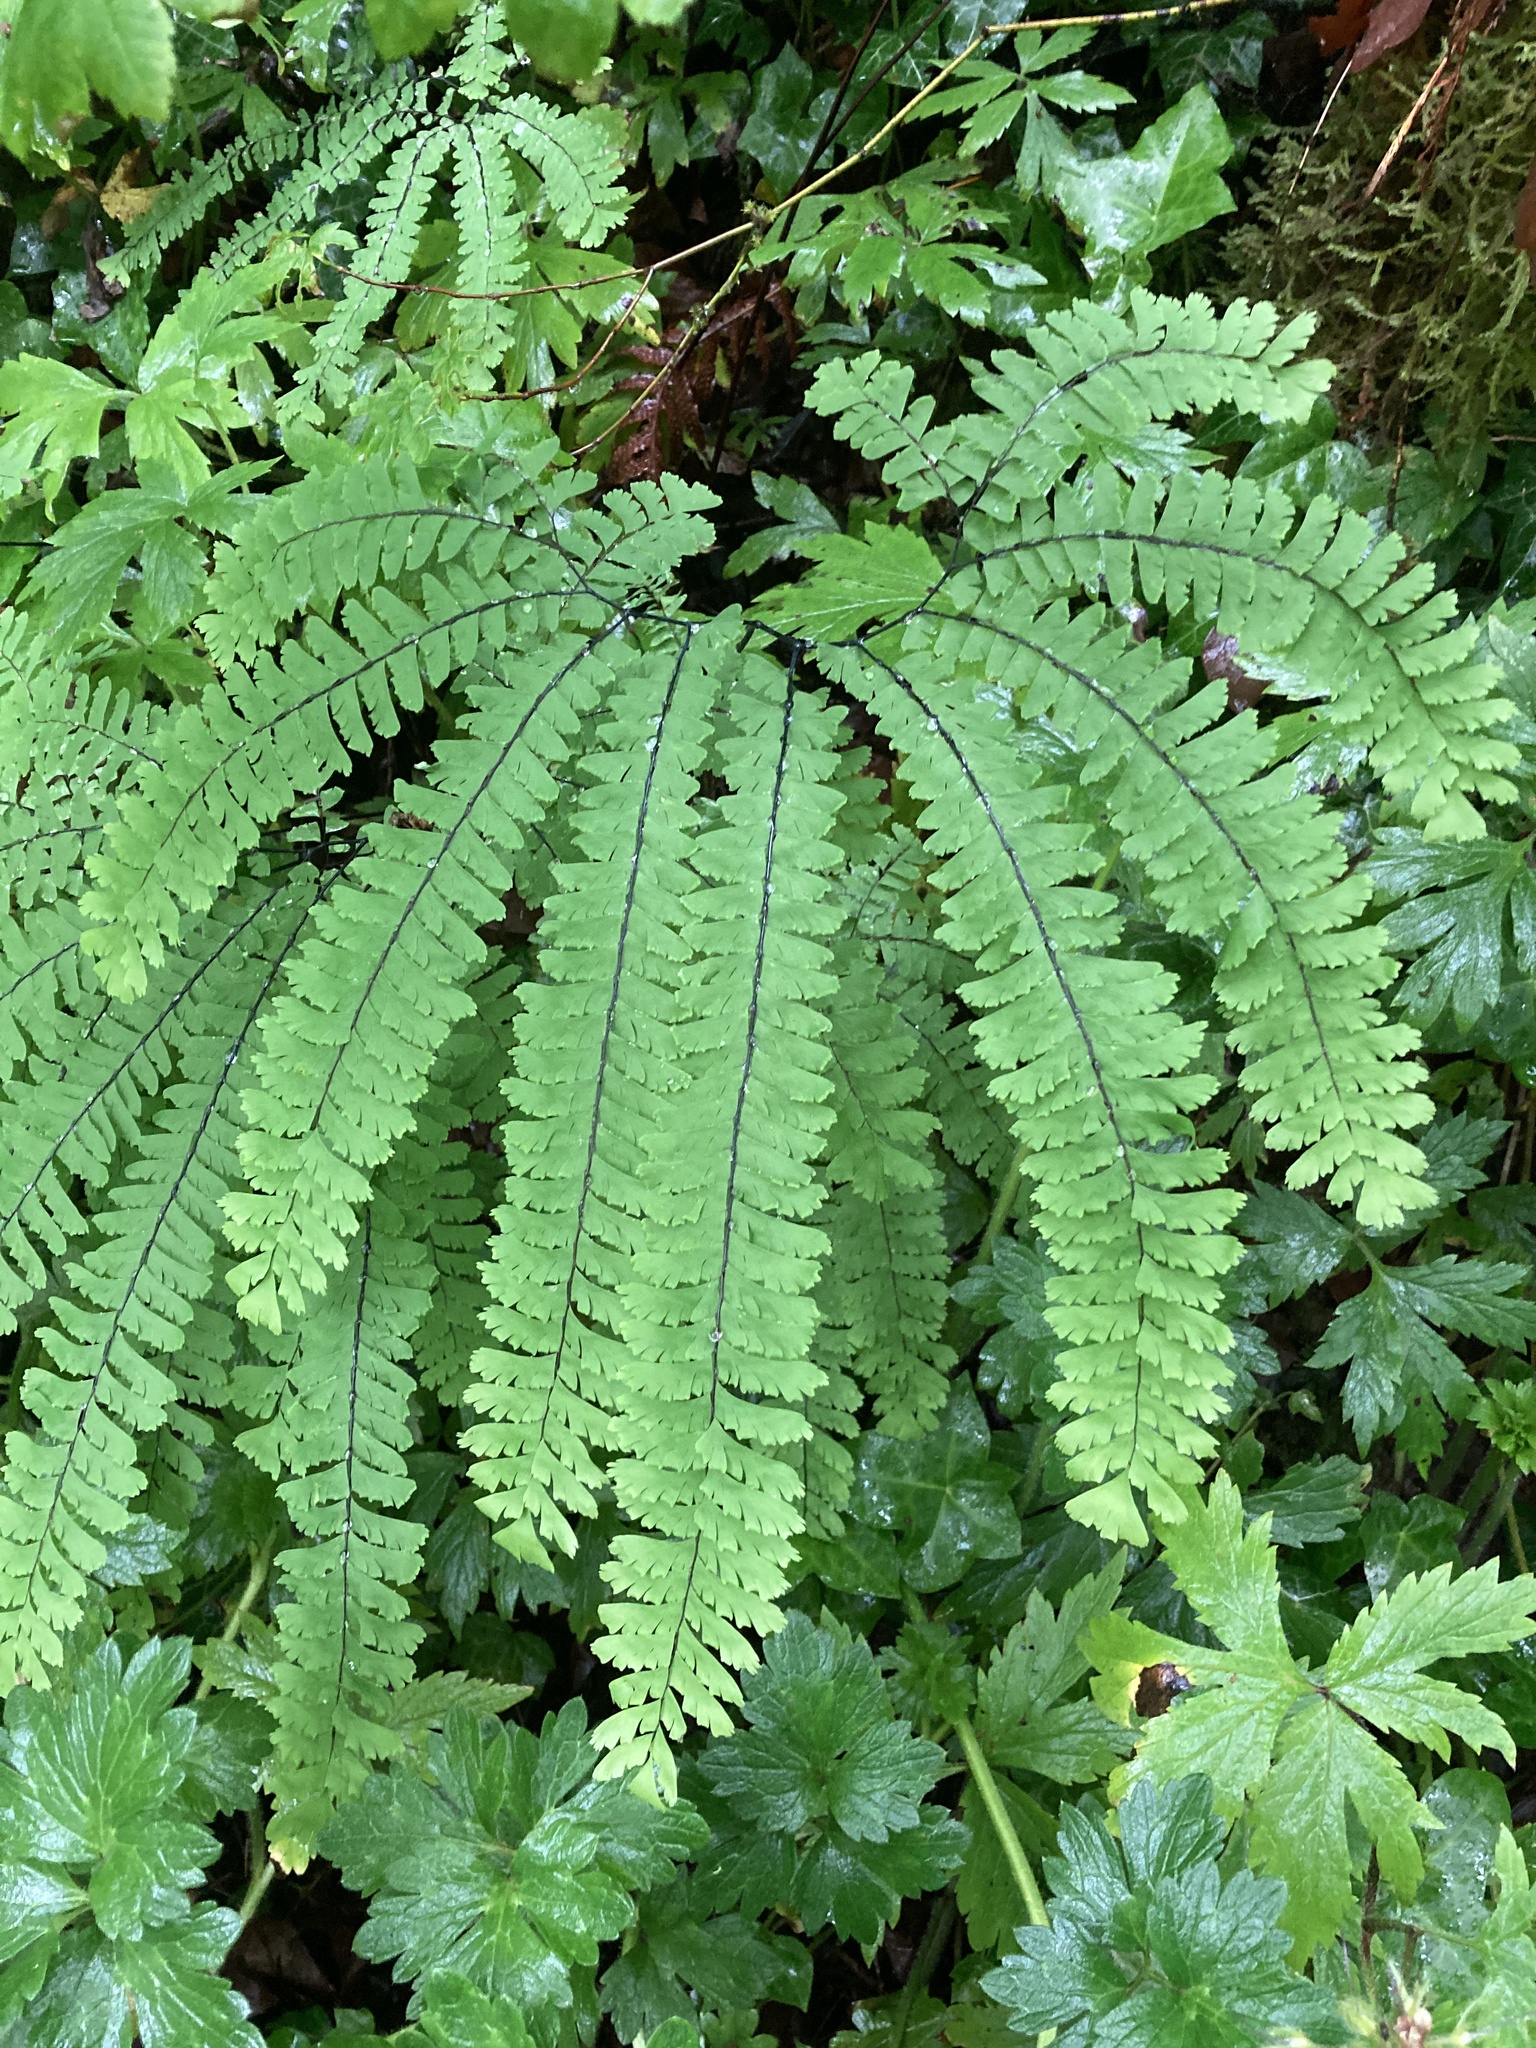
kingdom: Plantae
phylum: Tracheophyta
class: Polypodiopsida
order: Polypodiales
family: Pteridaceae
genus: Adiantum
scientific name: Adiantum aleuticum
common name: Aleutian maidenhair fern
